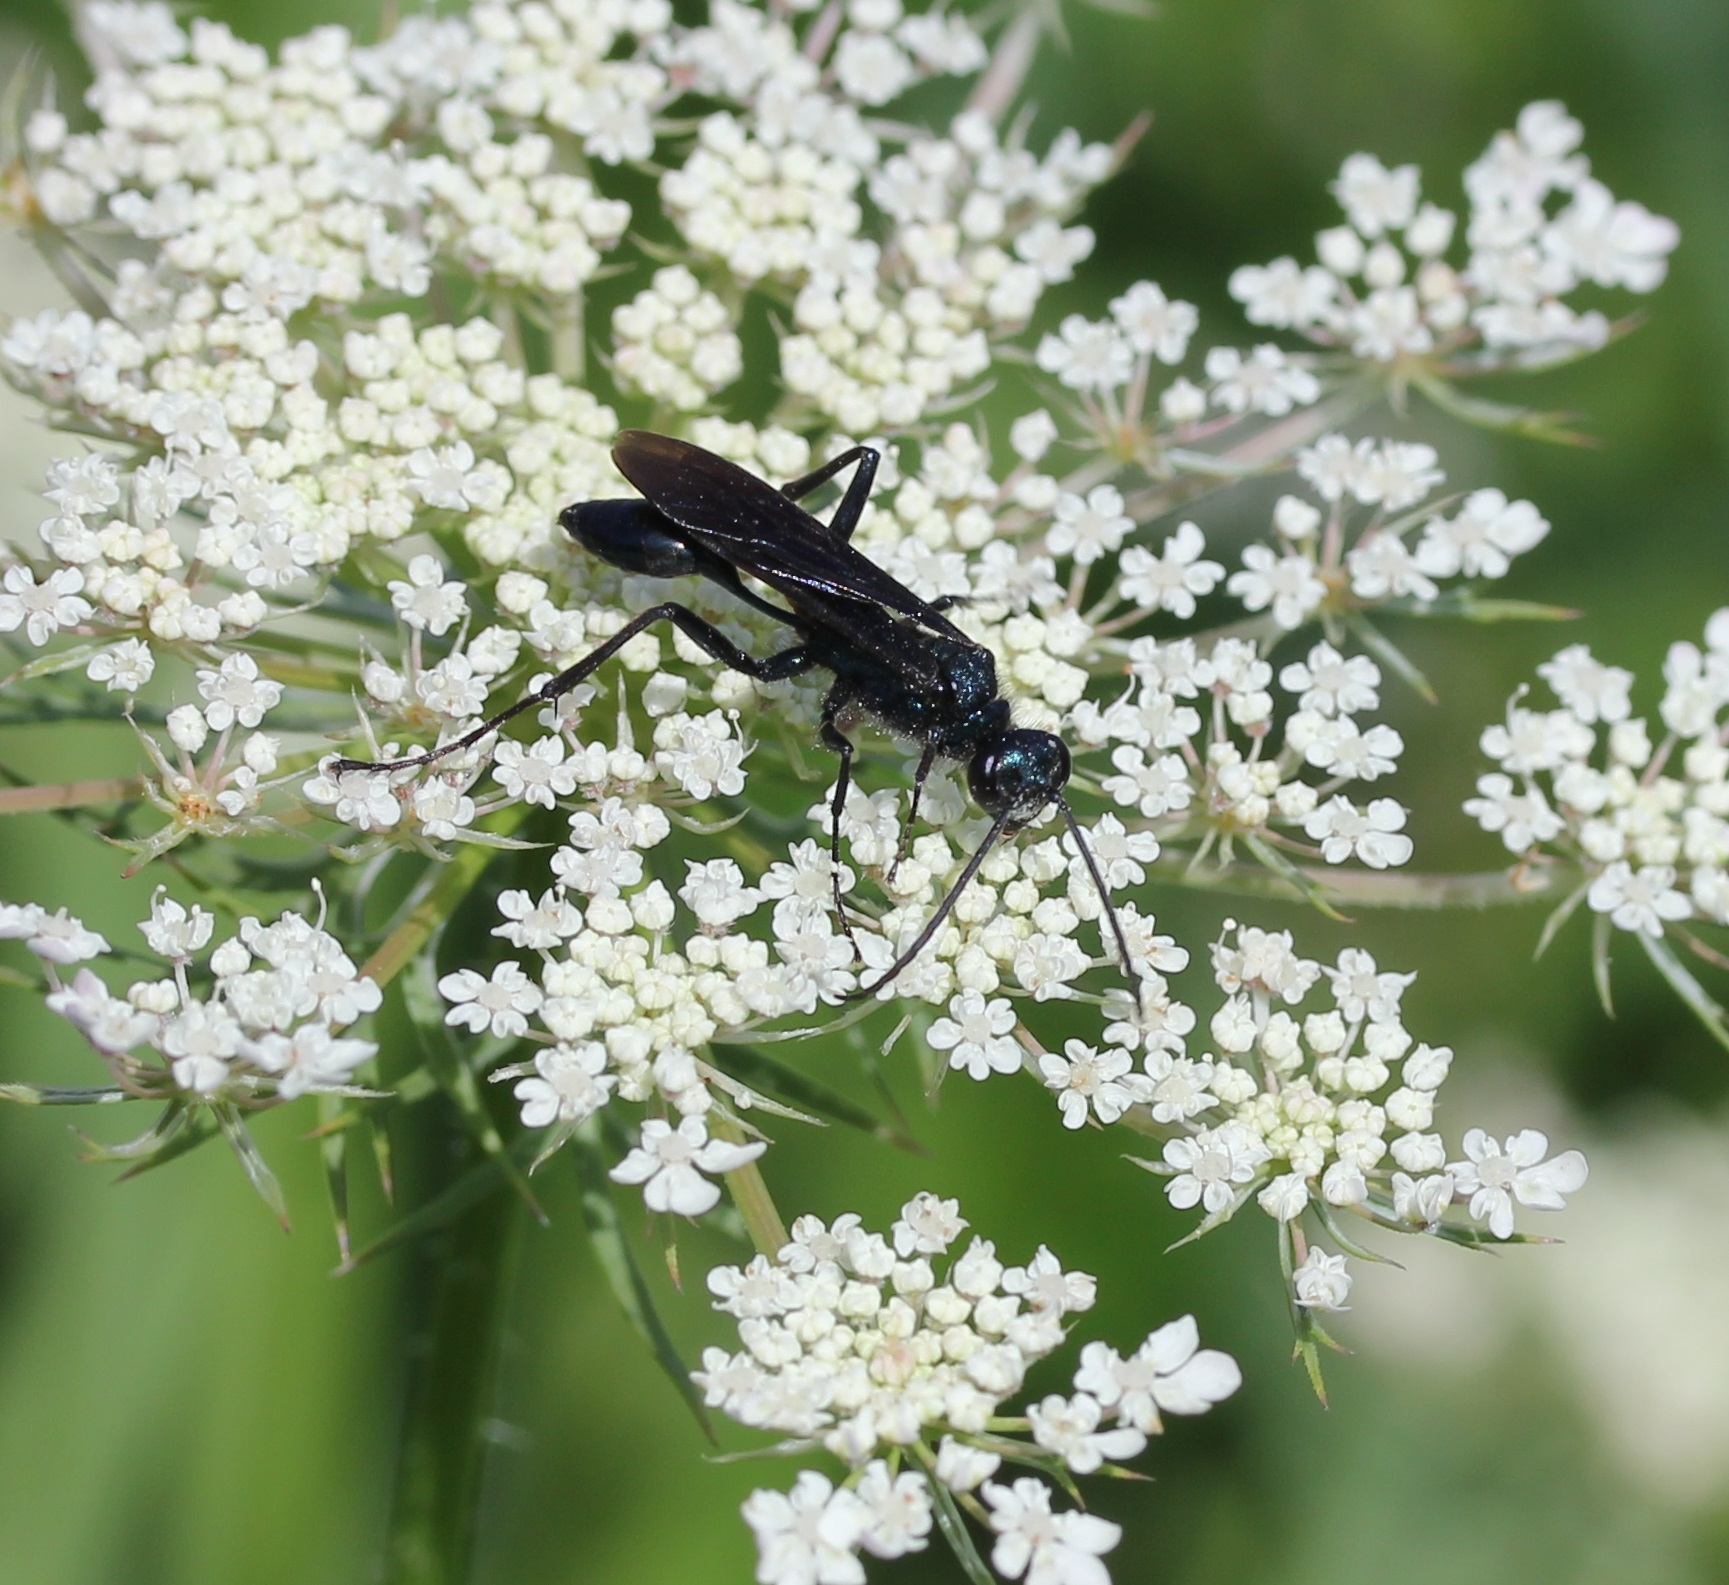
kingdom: Animalia
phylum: Arthropoda
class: Insecta
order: Hymenoptera
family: Sphecidae
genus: Chalybion
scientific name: Chalybion californicum
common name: Mud dauber
